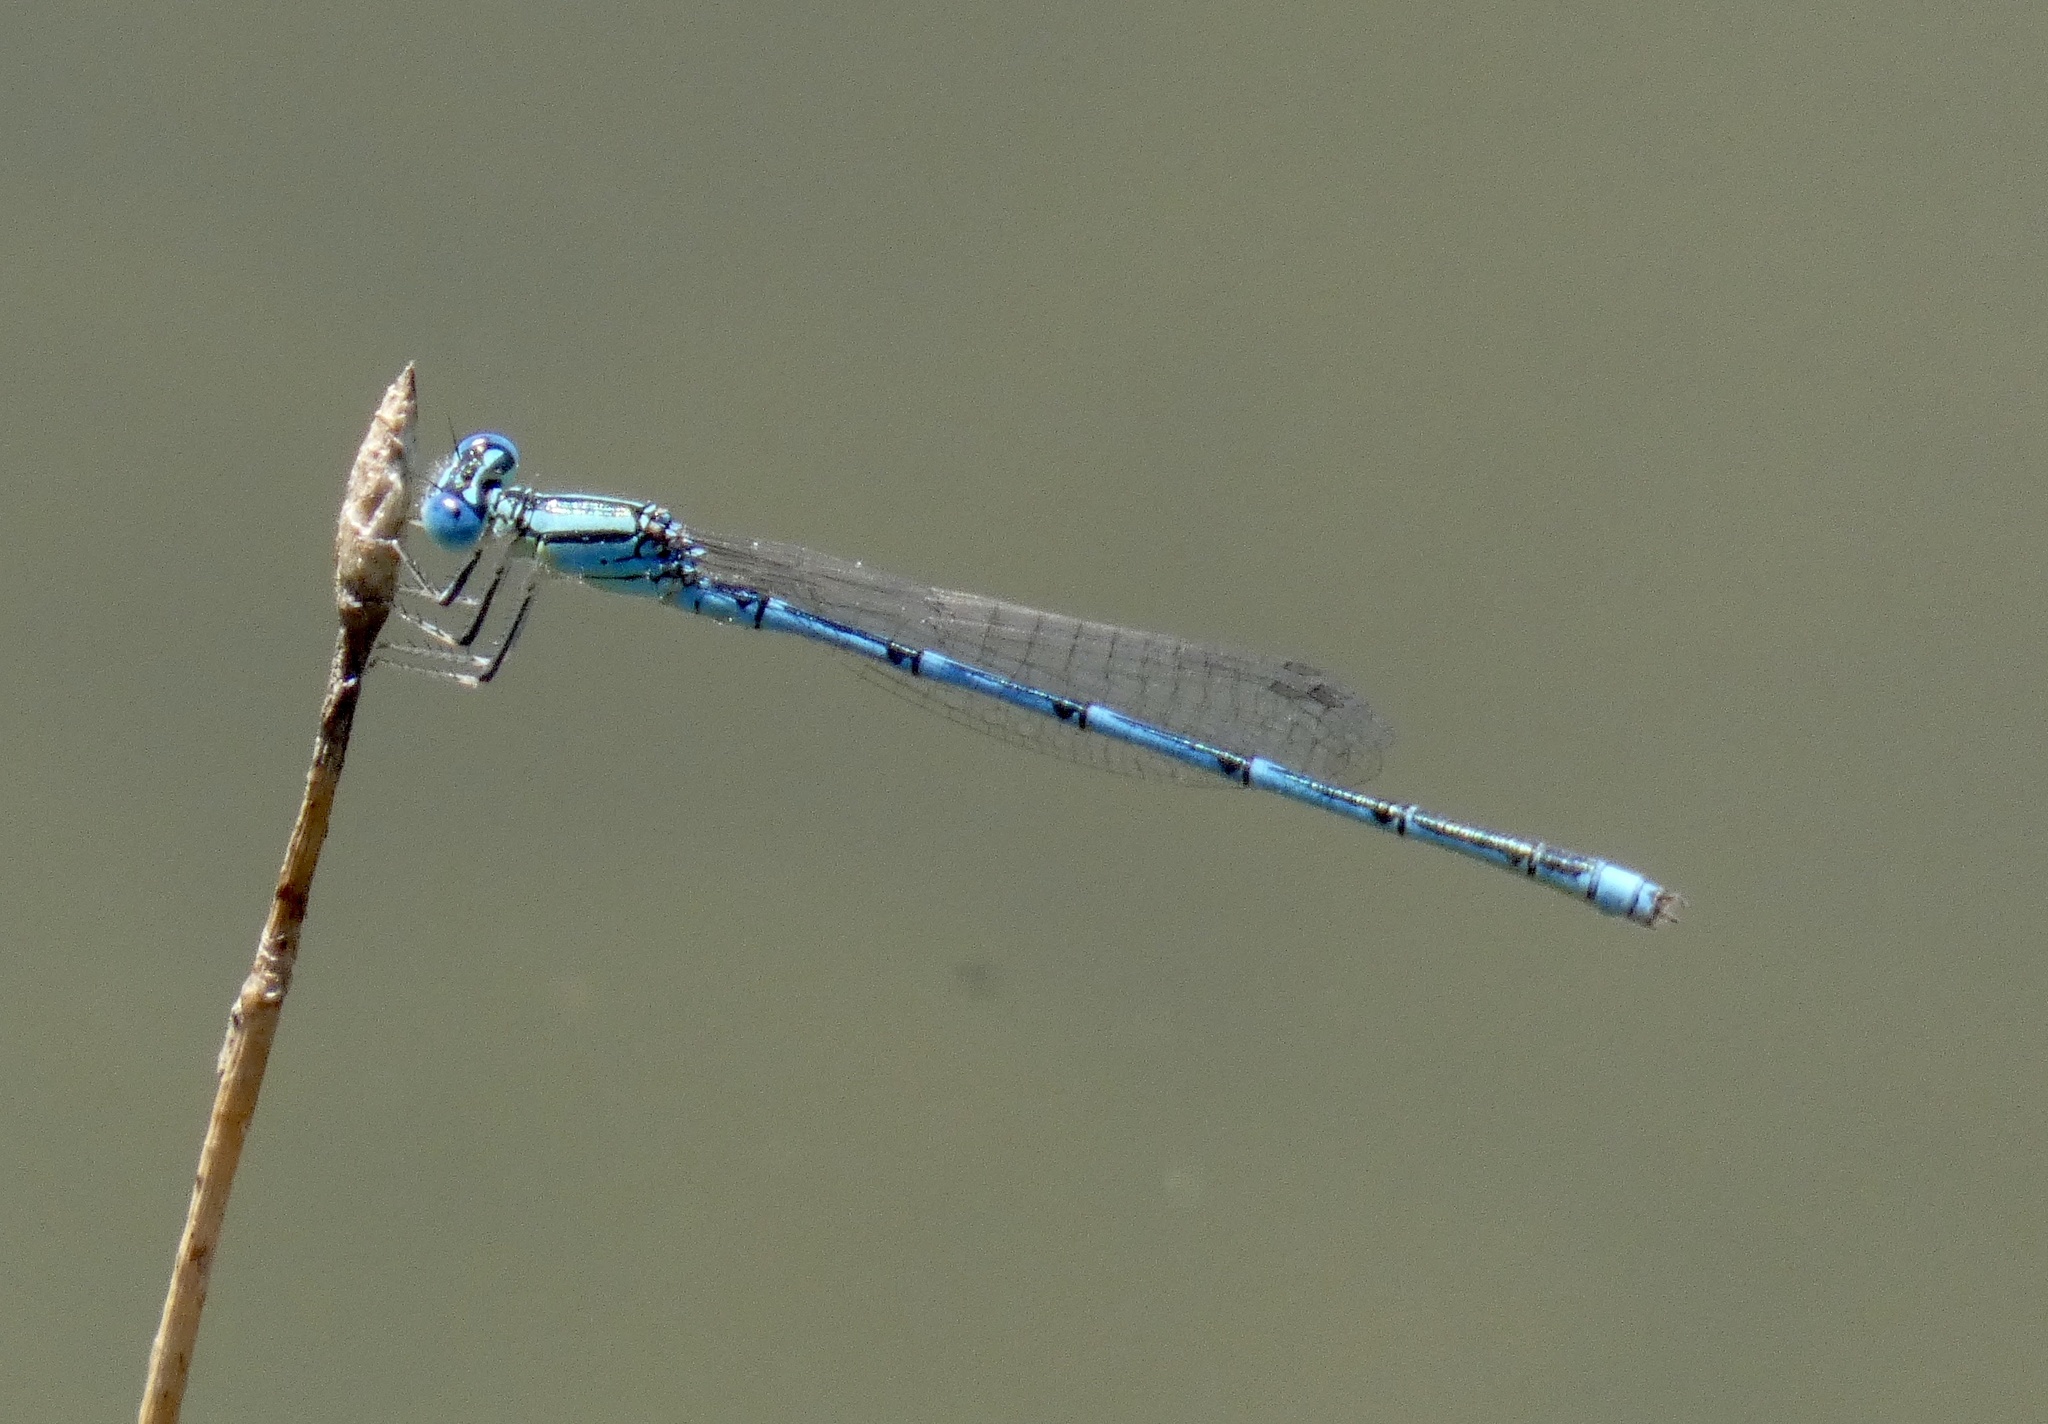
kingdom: Animalia
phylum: Arthropoda
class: Insecta
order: Odonata
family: Coenagrionidae
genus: Erythromma
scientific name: Erythromma lindenii
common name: Blue-eye
